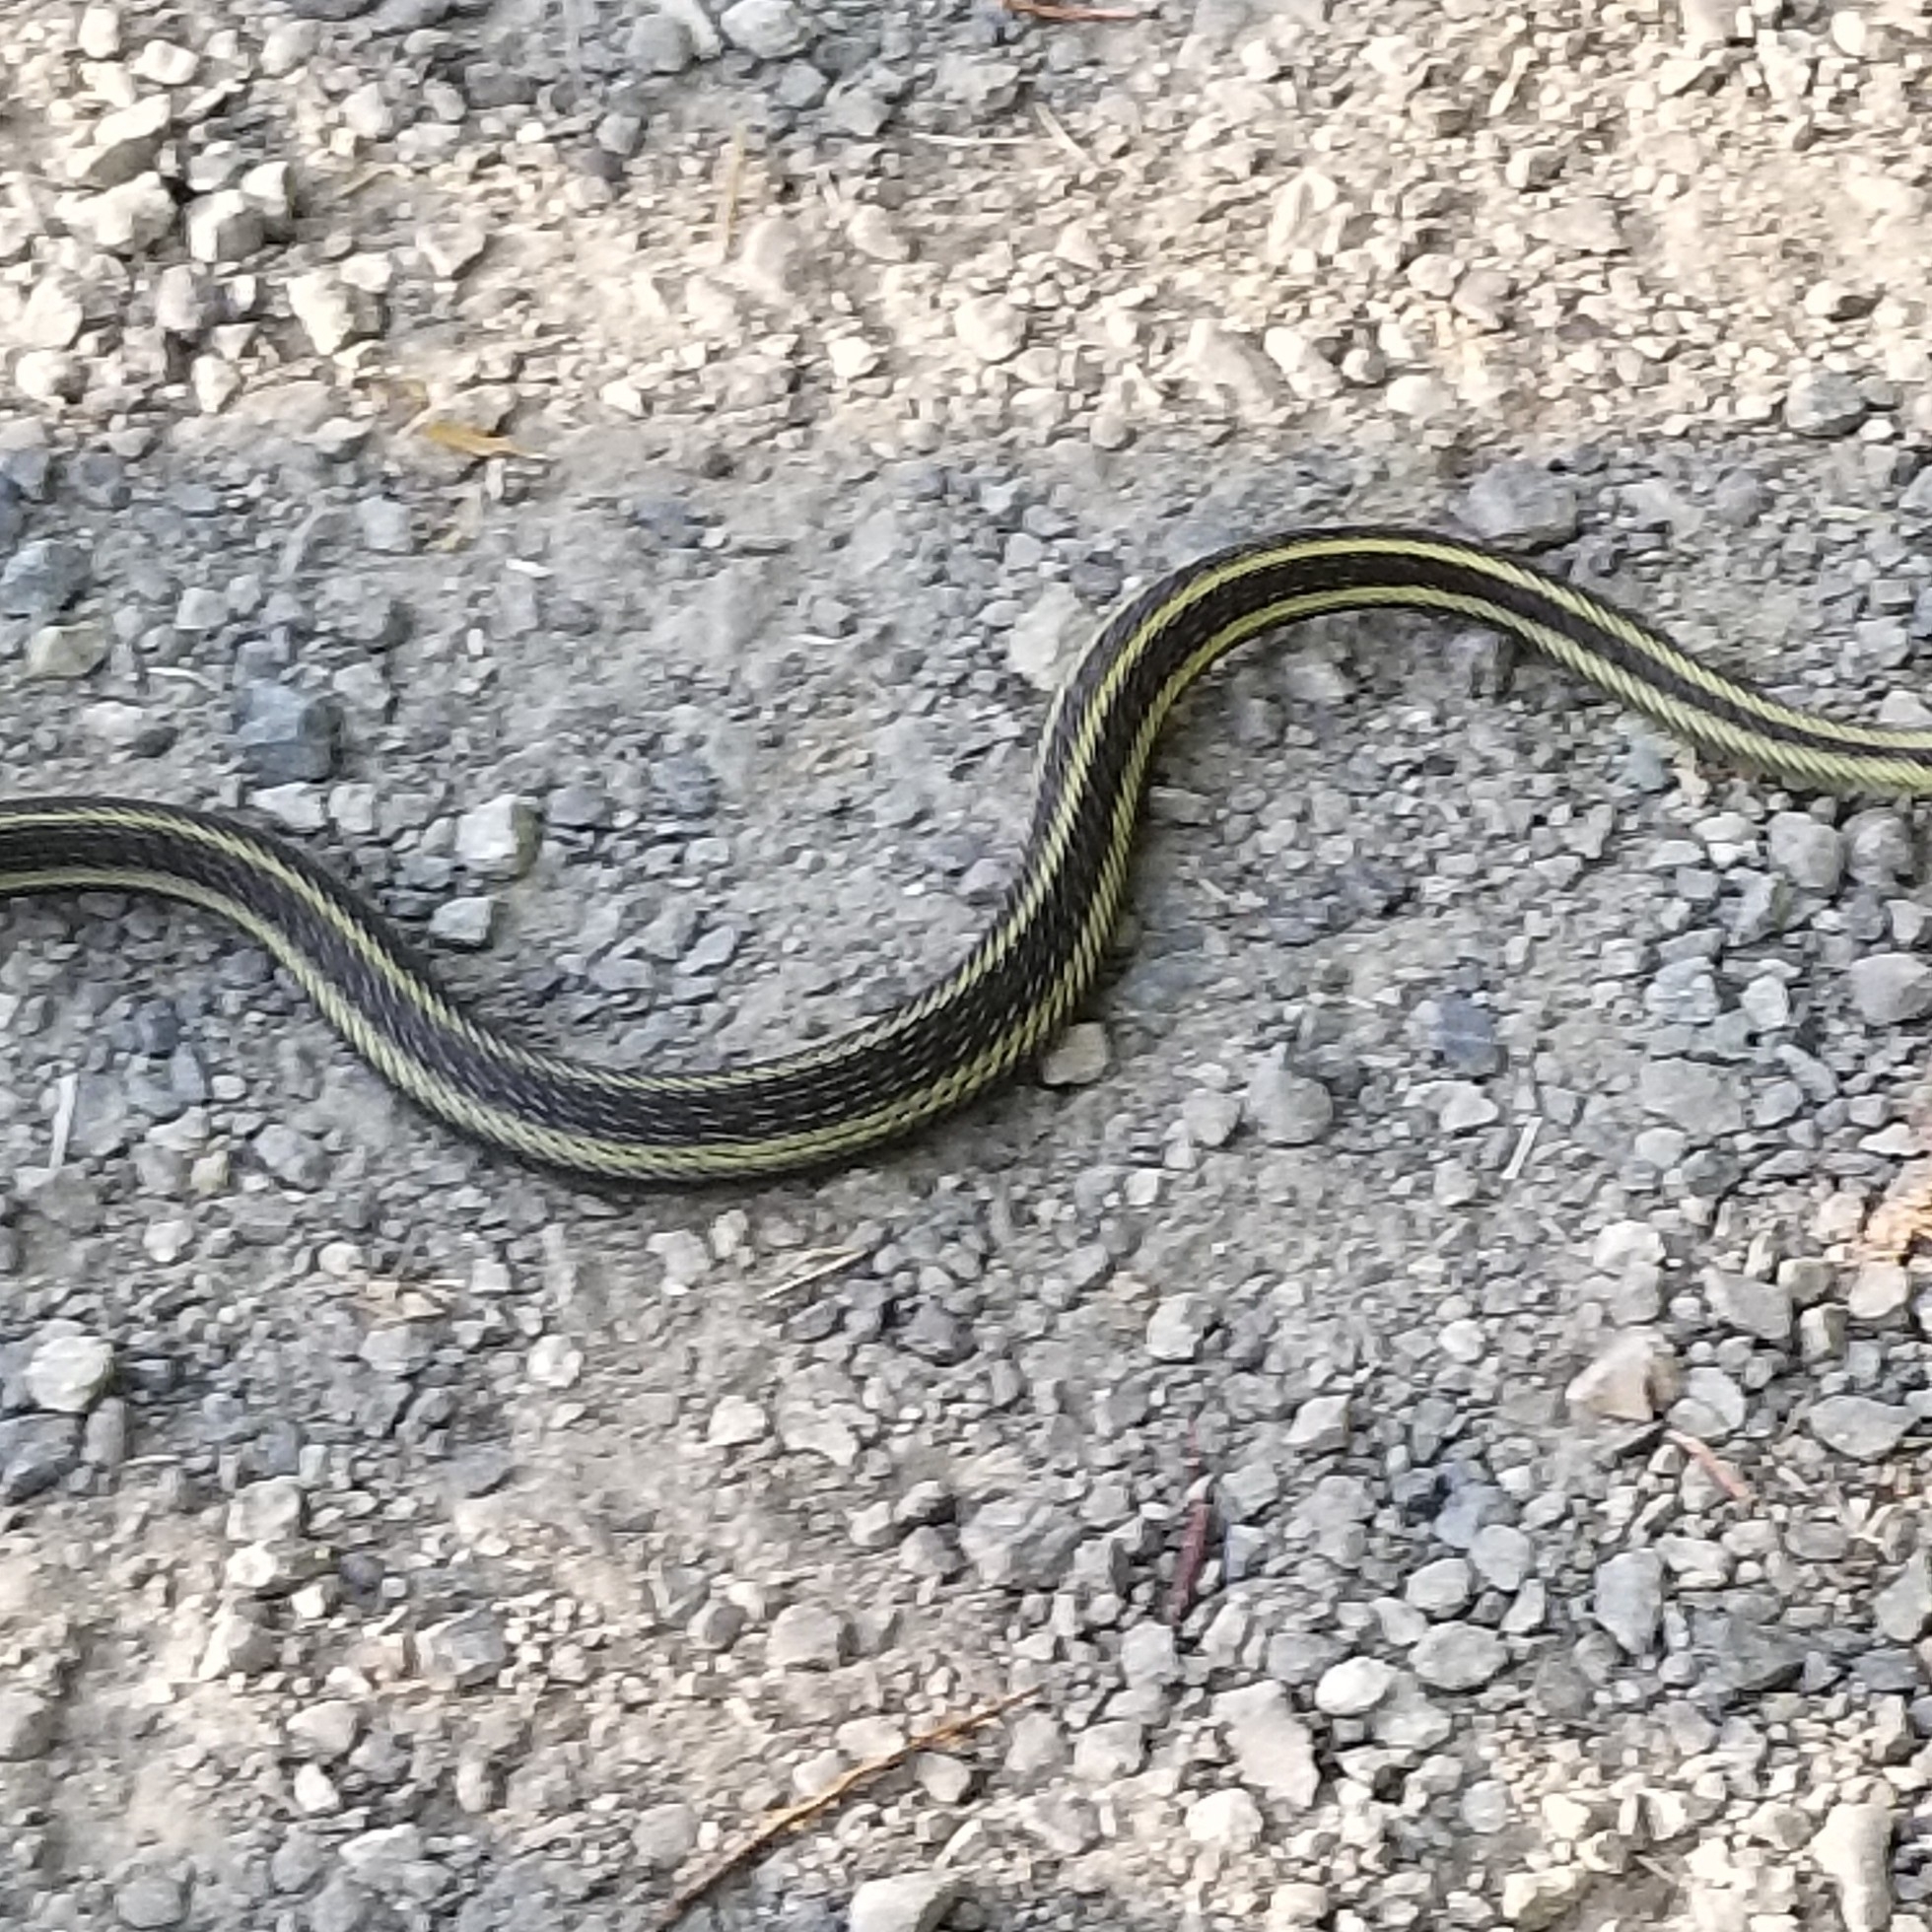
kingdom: Animalia
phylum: Chordata
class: Squamata
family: Colubridae
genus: Thamnophis
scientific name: Thamnophis ordinoides
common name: Northwestern garter snake
